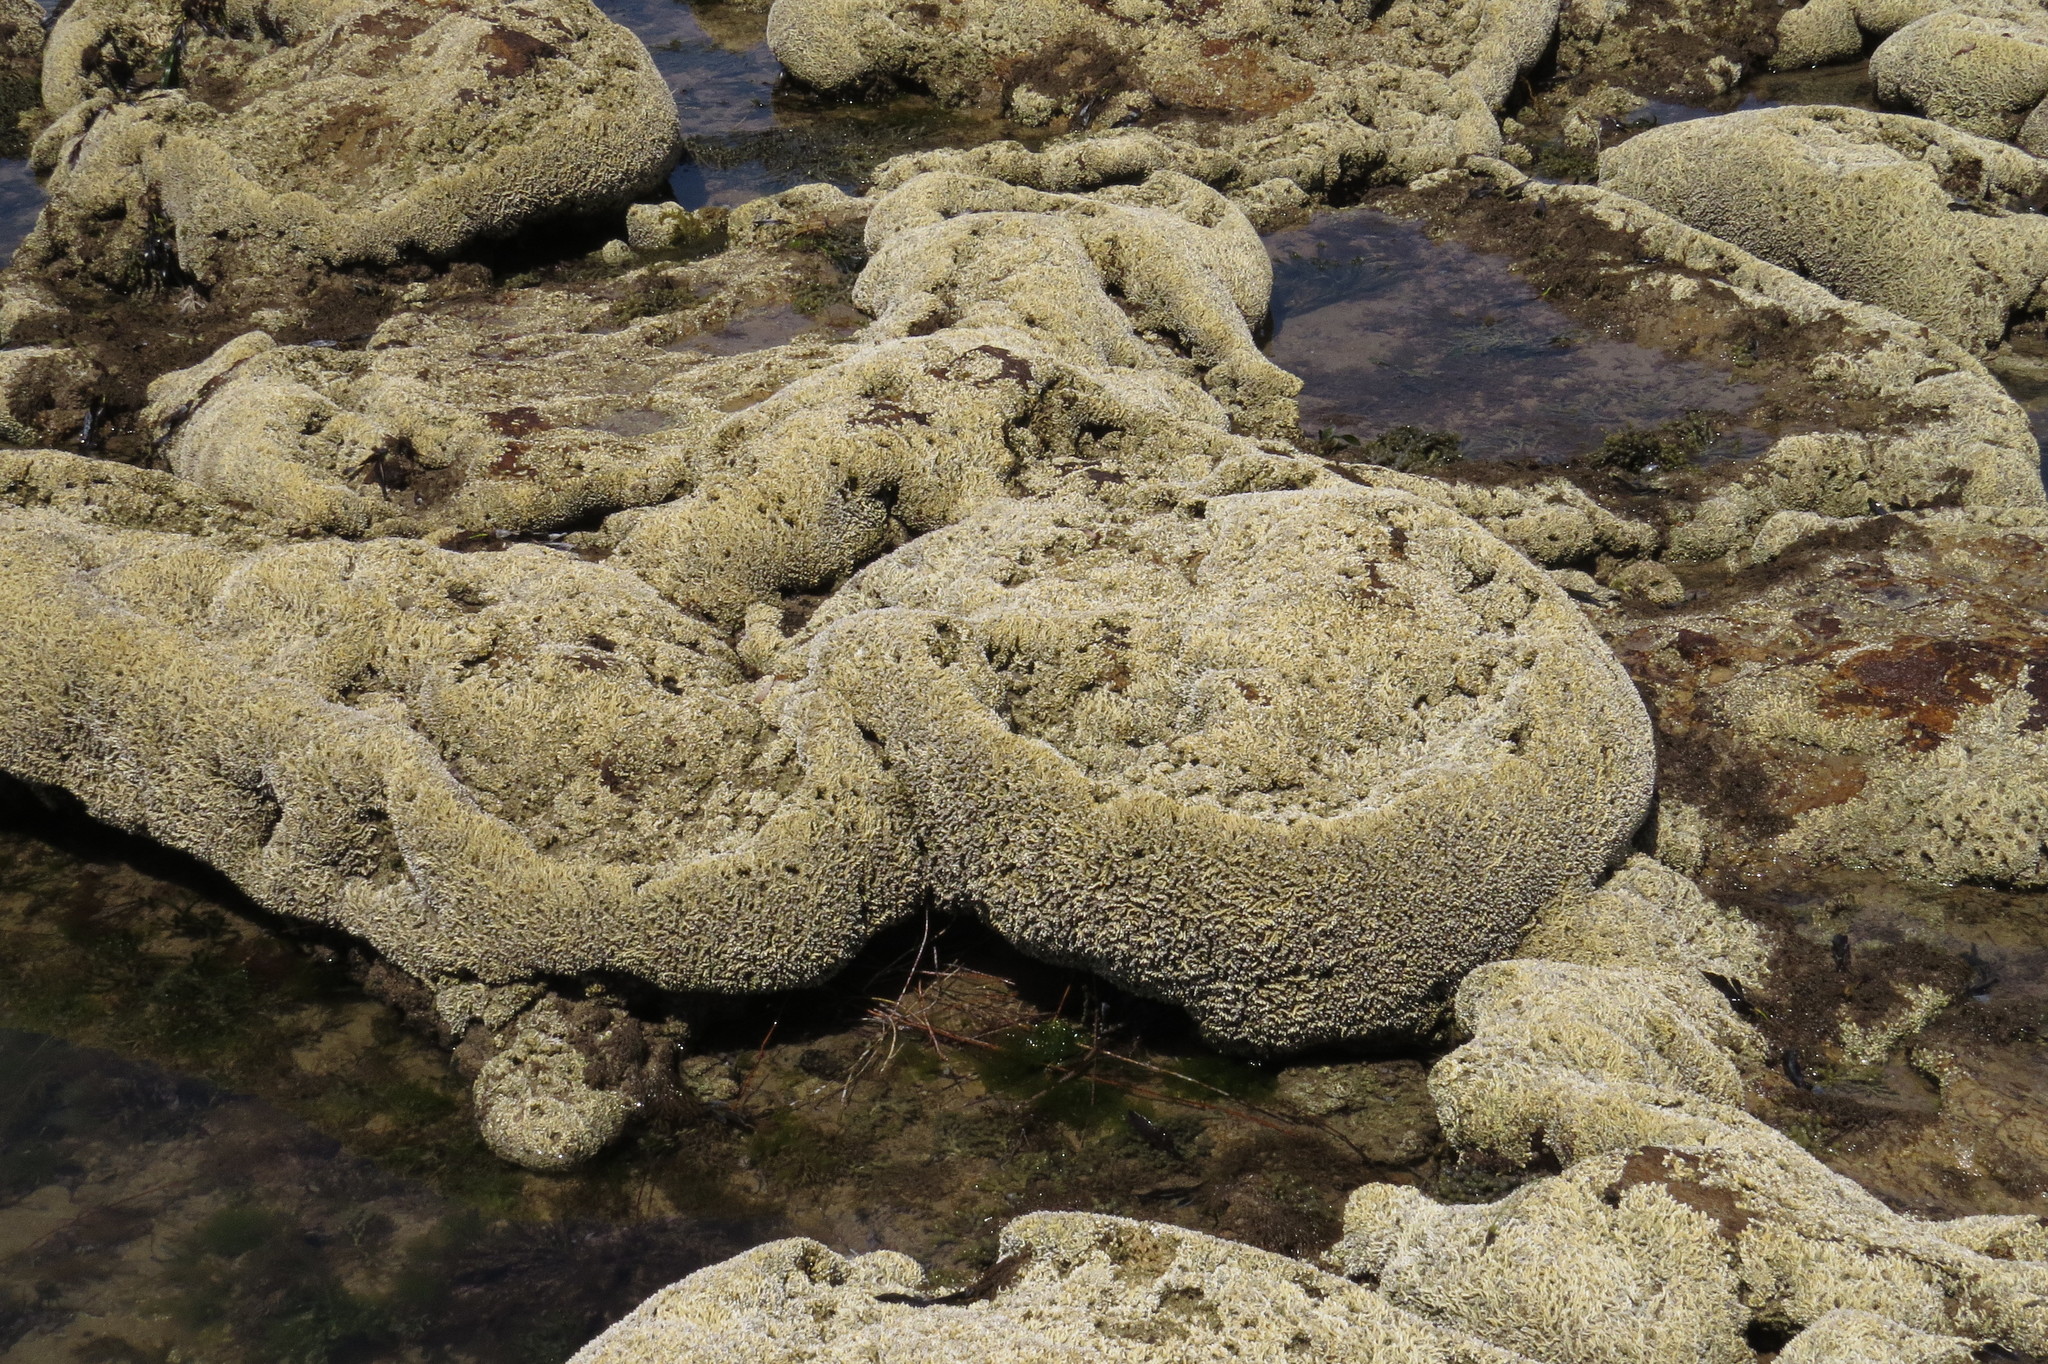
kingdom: Animalia
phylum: Annelida
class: Polychaeta
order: Sabellida
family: Serpulidae
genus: Galeolaria
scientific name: Galeolaria caespitosa
